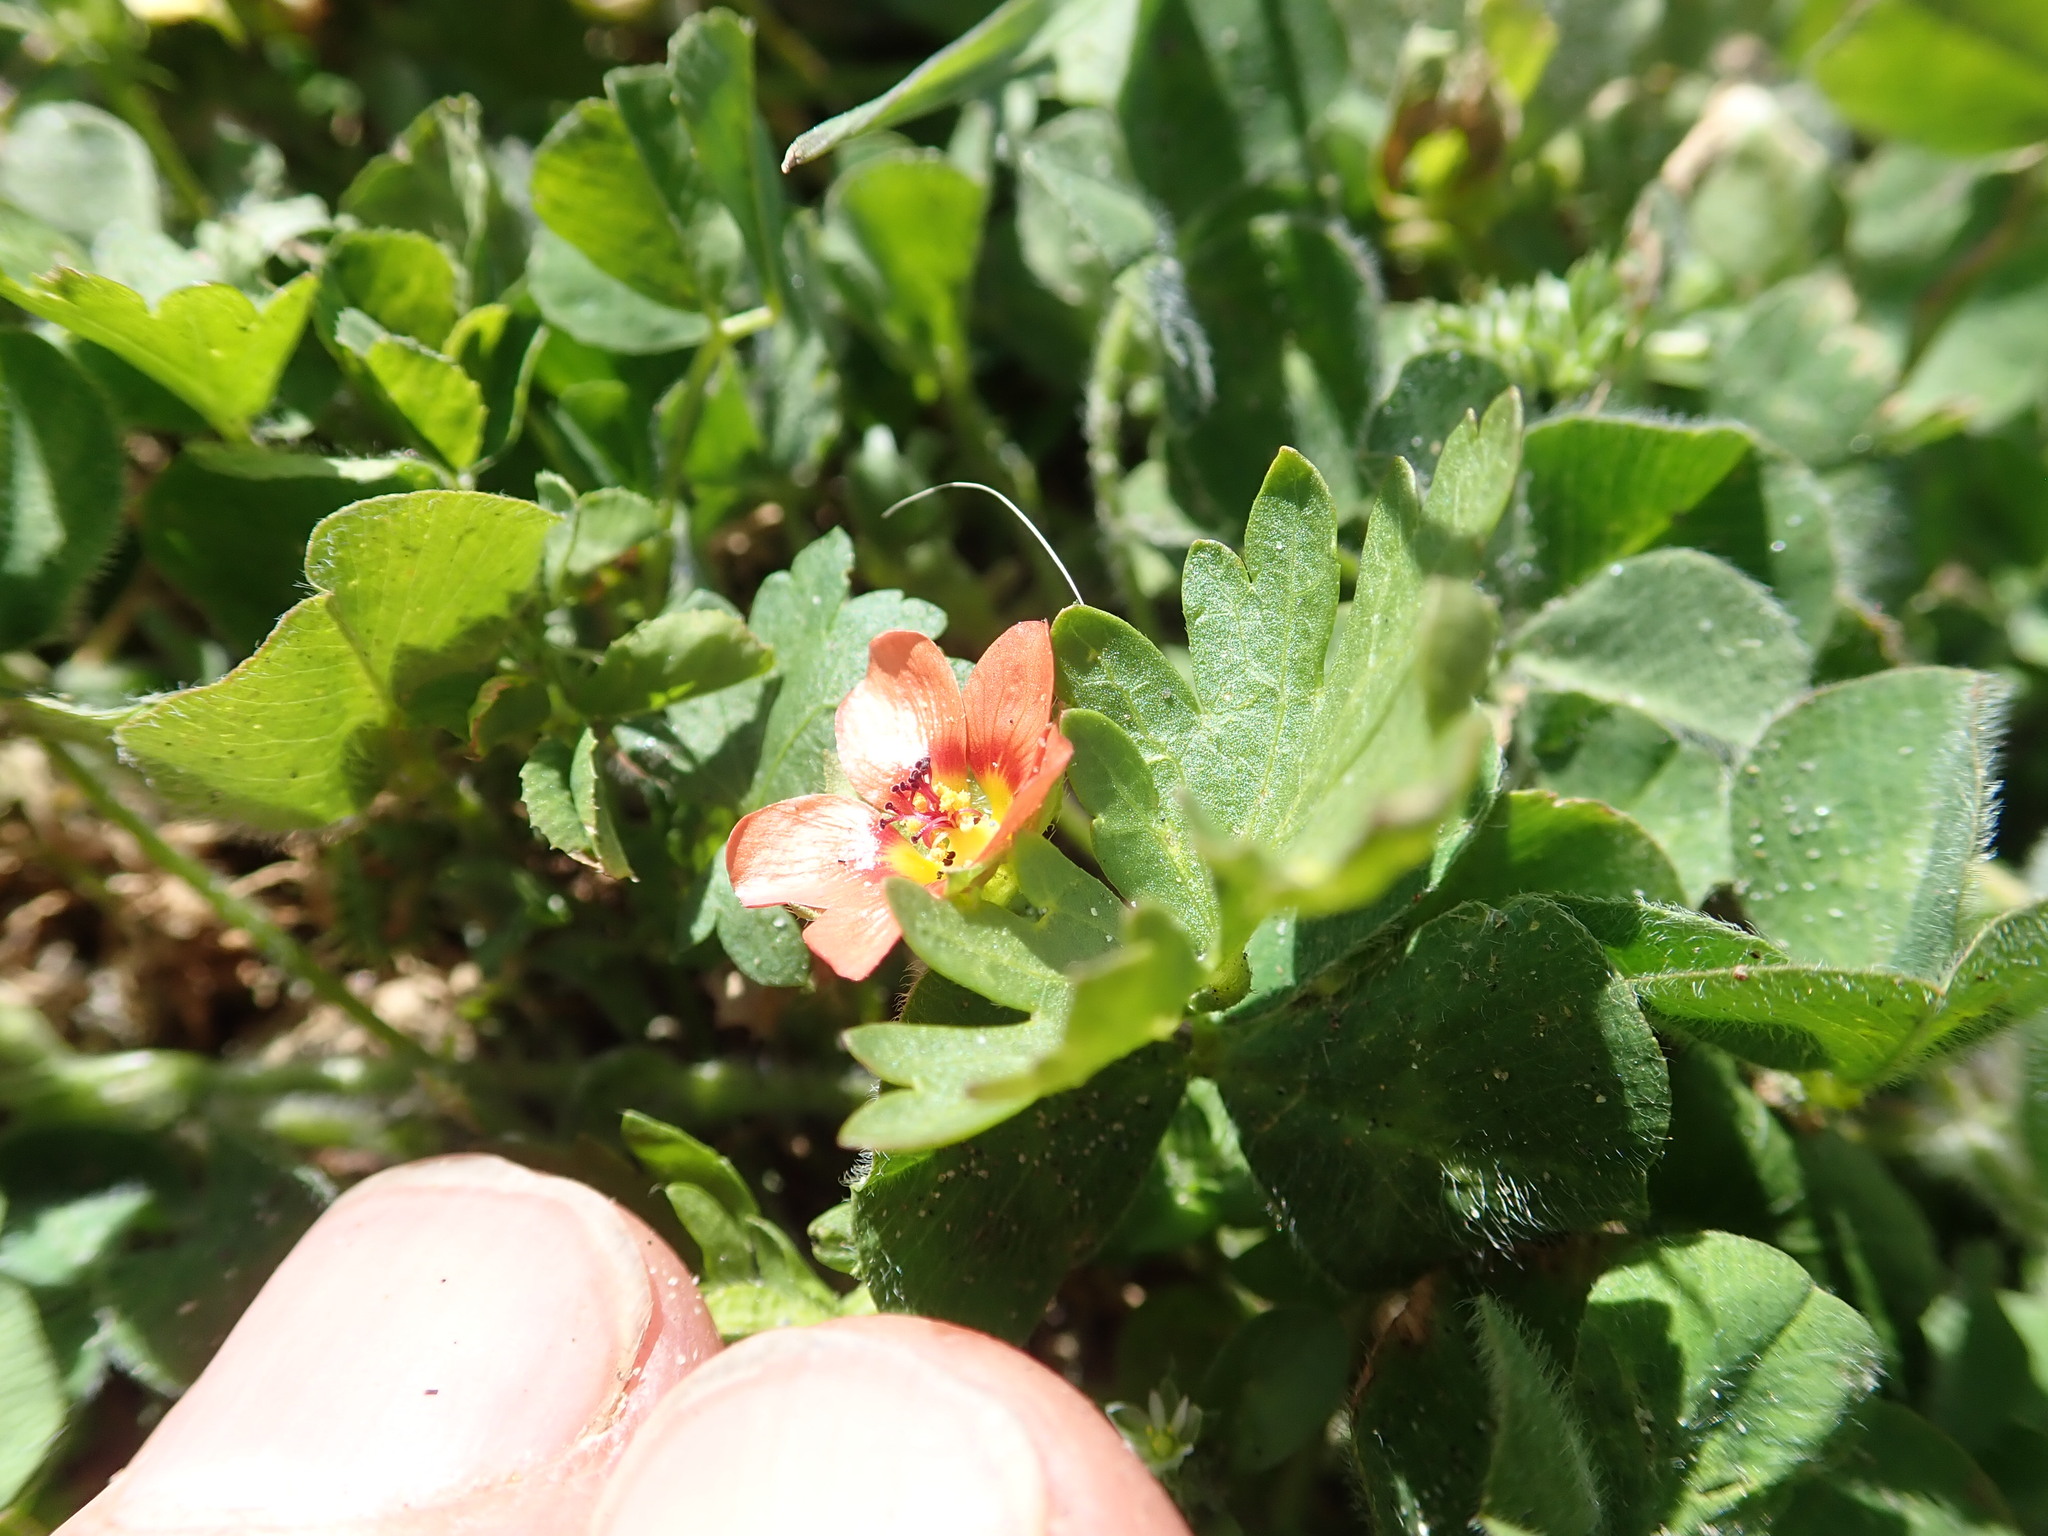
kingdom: Plantae
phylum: Tracheophyta
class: Magnoliopsida
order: Malvales
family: Malvaceae
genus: Modiola
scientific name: Modiola caroliniana
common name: Carolina bristlemallow
